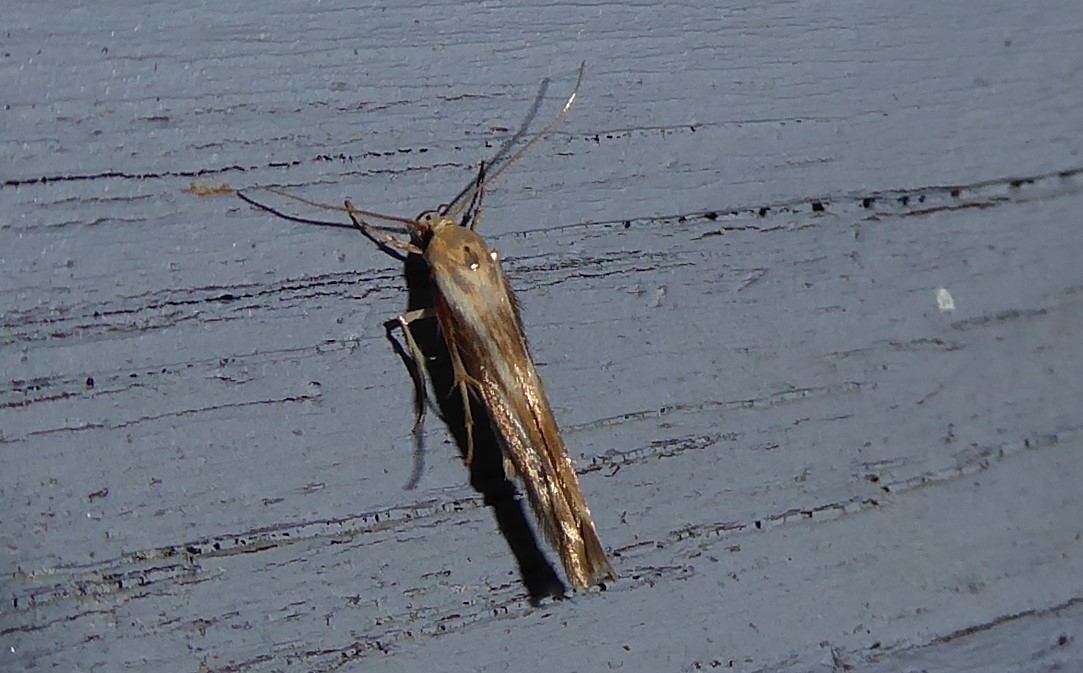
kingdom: Animalia
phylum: Arthropoda
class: Insecta
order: Lepidoptera
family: Stathmopodidae
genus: Stathmopoda
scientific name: Stathmopoda aposema
